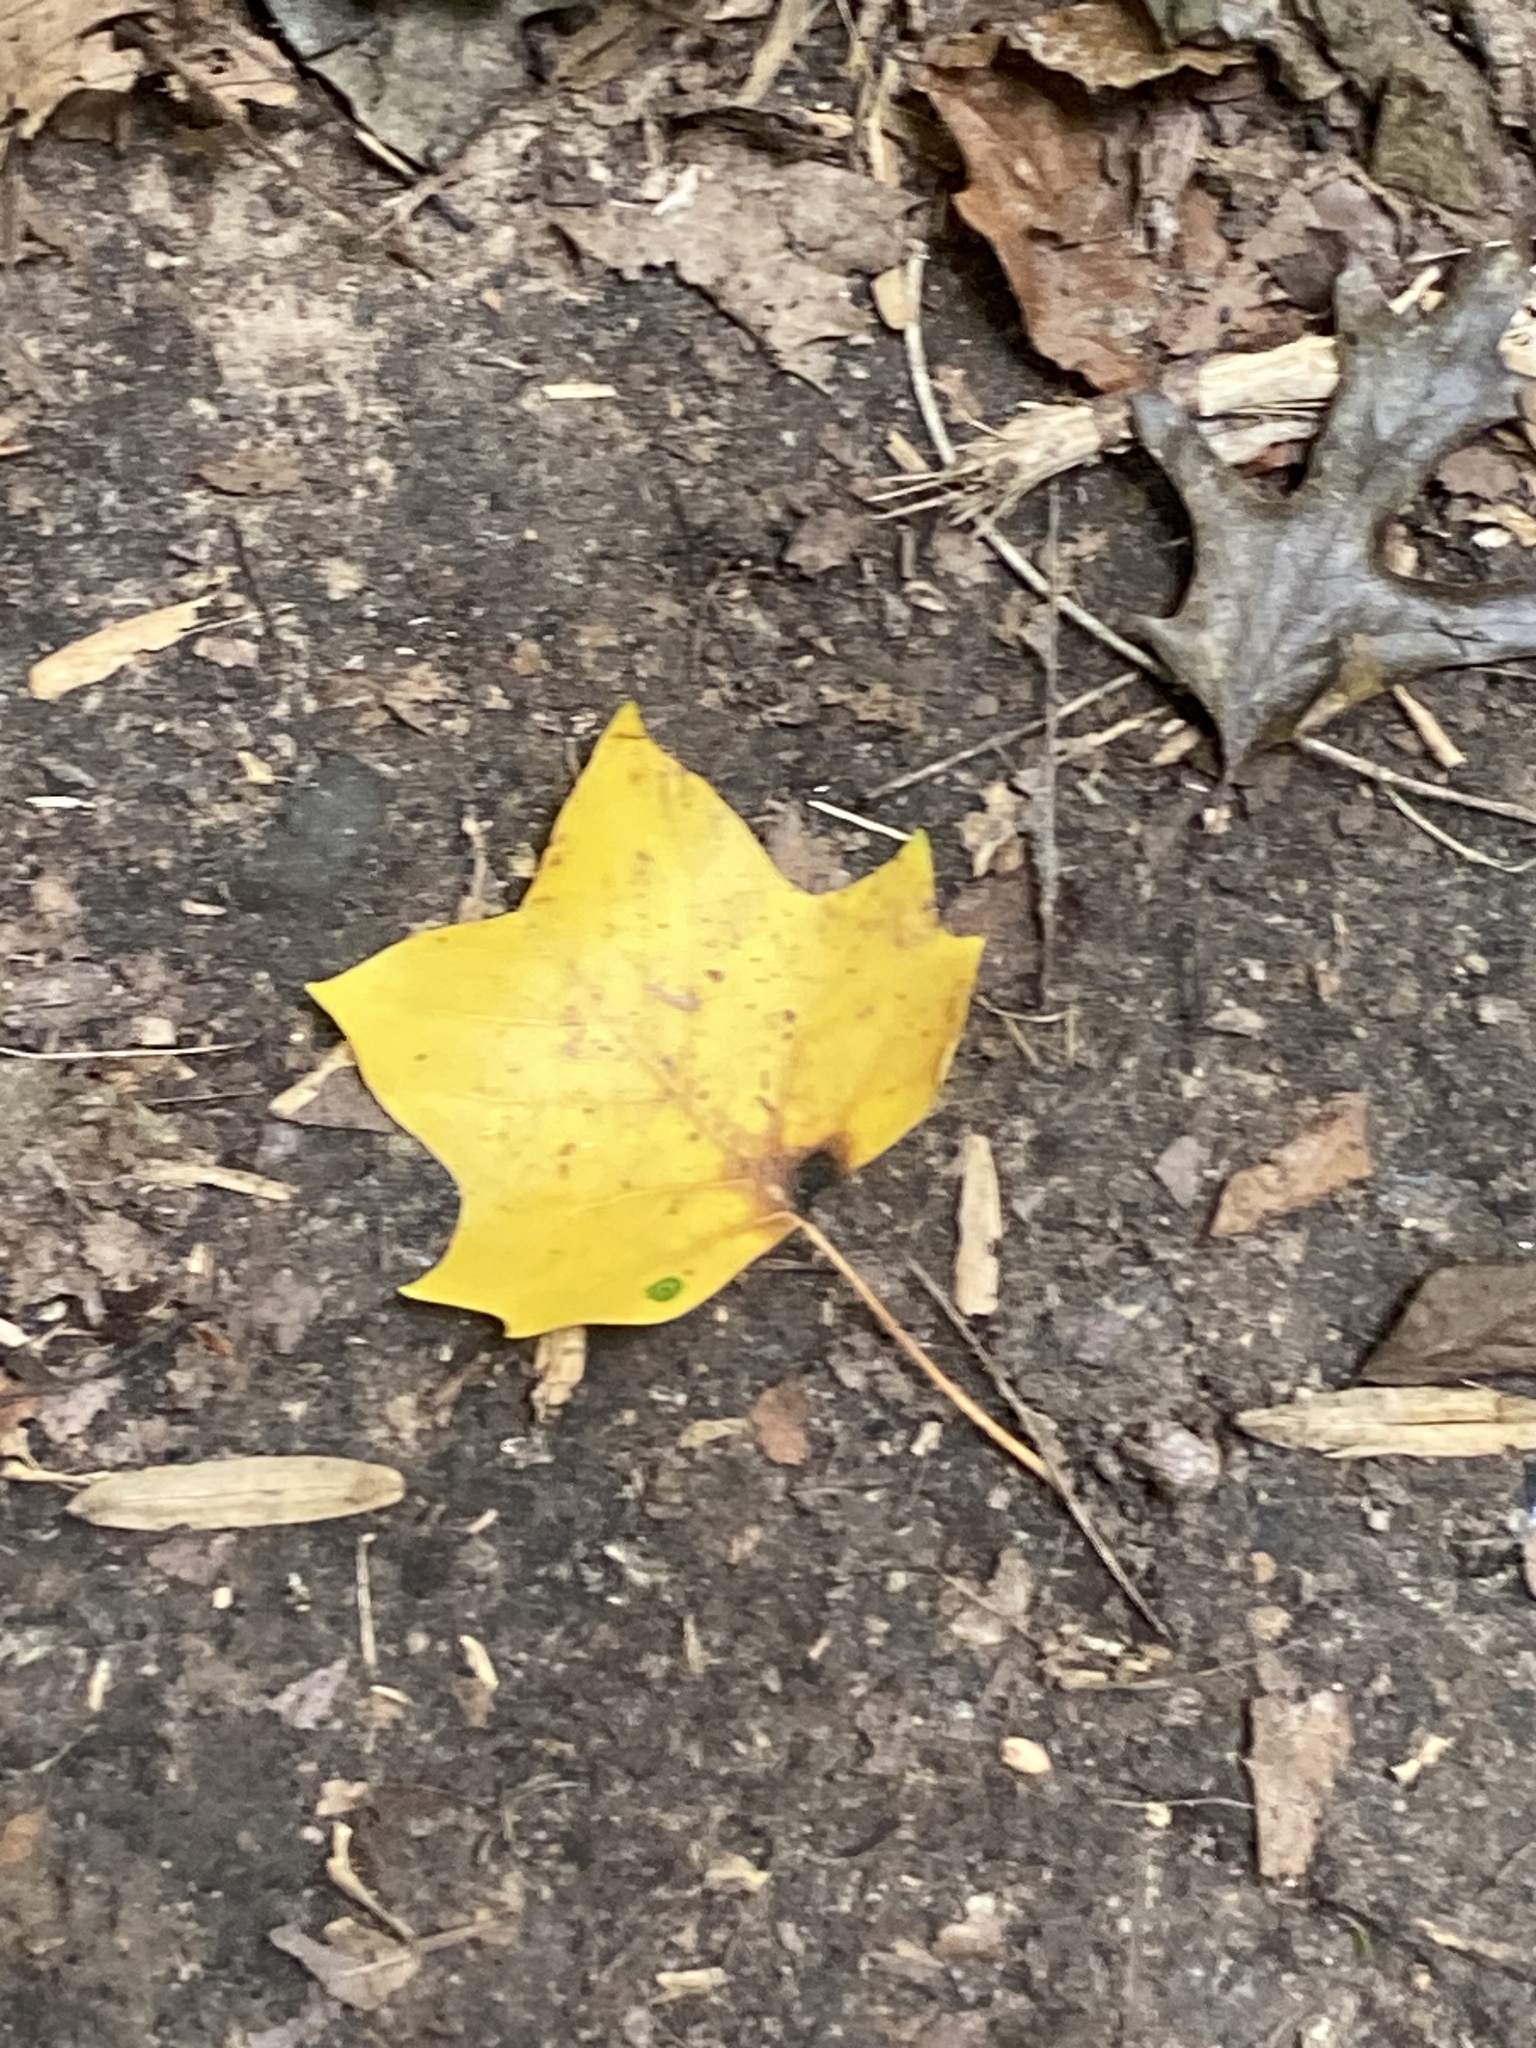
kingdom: Plantae
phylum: Tracheophyta
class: Magnoliopsida
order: Magnoliales
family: Magnoliaceae
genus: Liriodendron
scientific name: Liriodendron tulipifera
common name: Tulip tree
